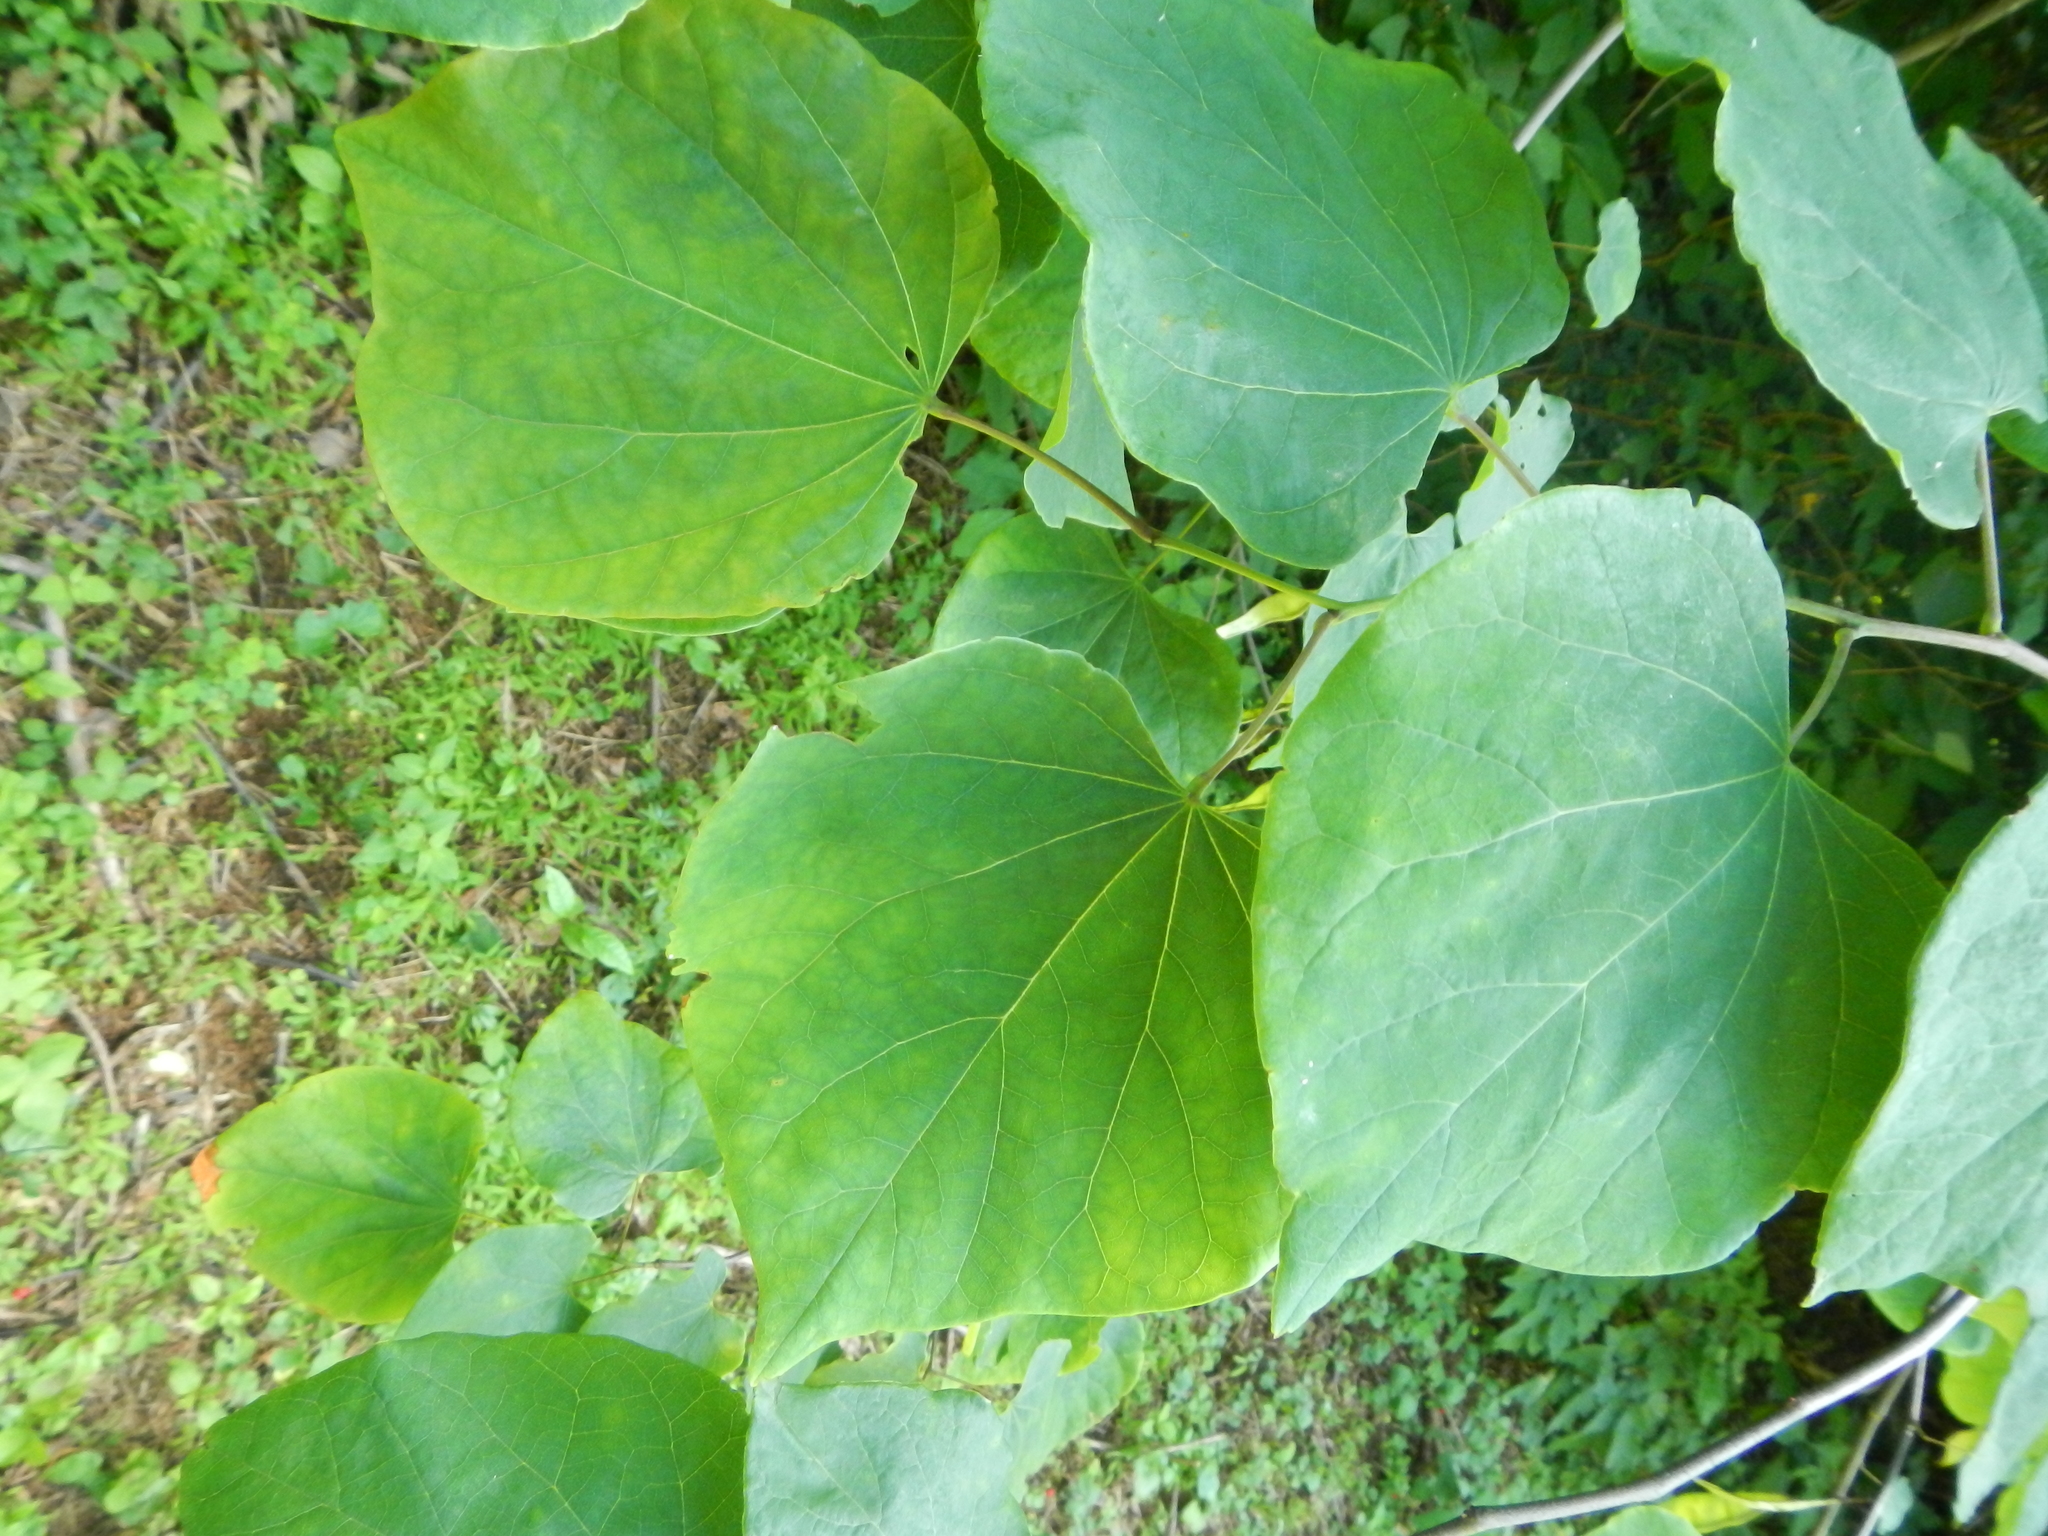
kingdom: Plantae
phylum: Tracheophyta
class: Magnoliopsida
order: Fabales
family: Fabaceae
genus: Cercis
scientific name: Cercis canadensis
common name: Eastern redbud
